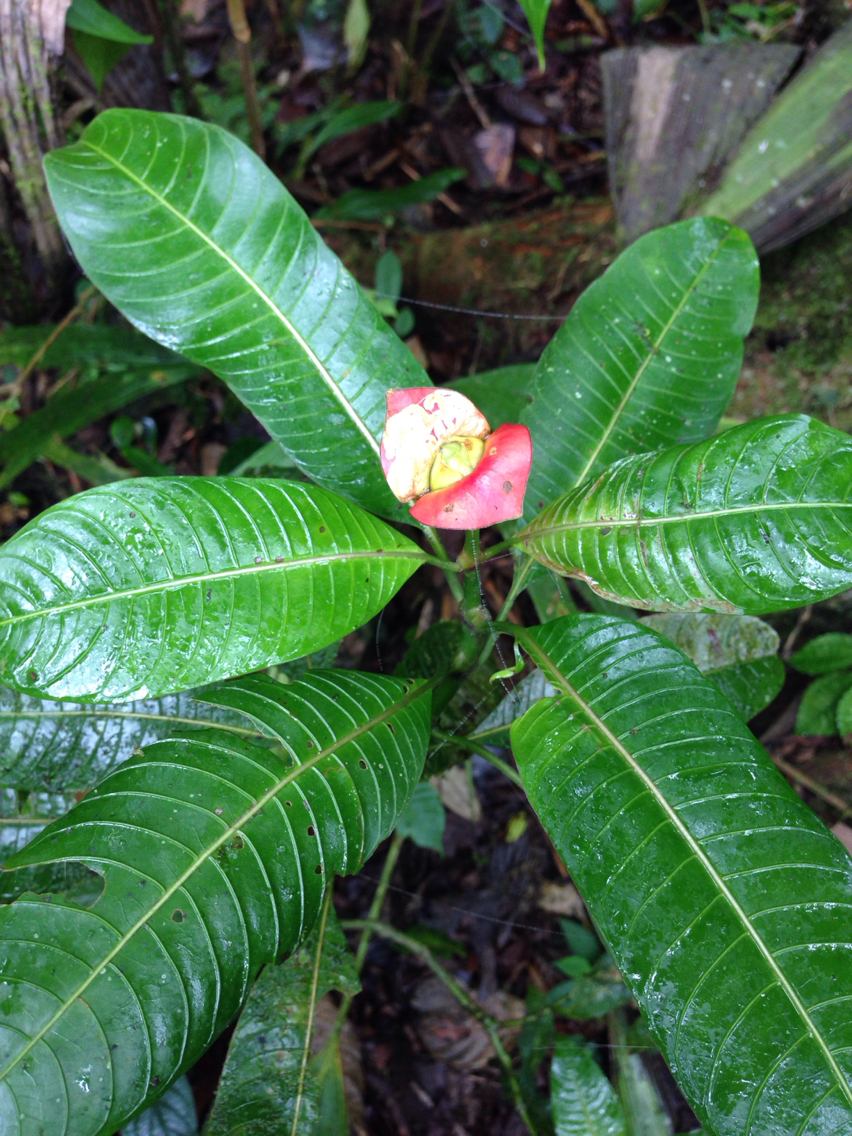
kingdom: Plantae
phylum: Tracheophyta
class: Magnoliopsida
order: Gentianales
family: Rubiaceae
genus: Palicourea
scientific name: Palicourea elata
